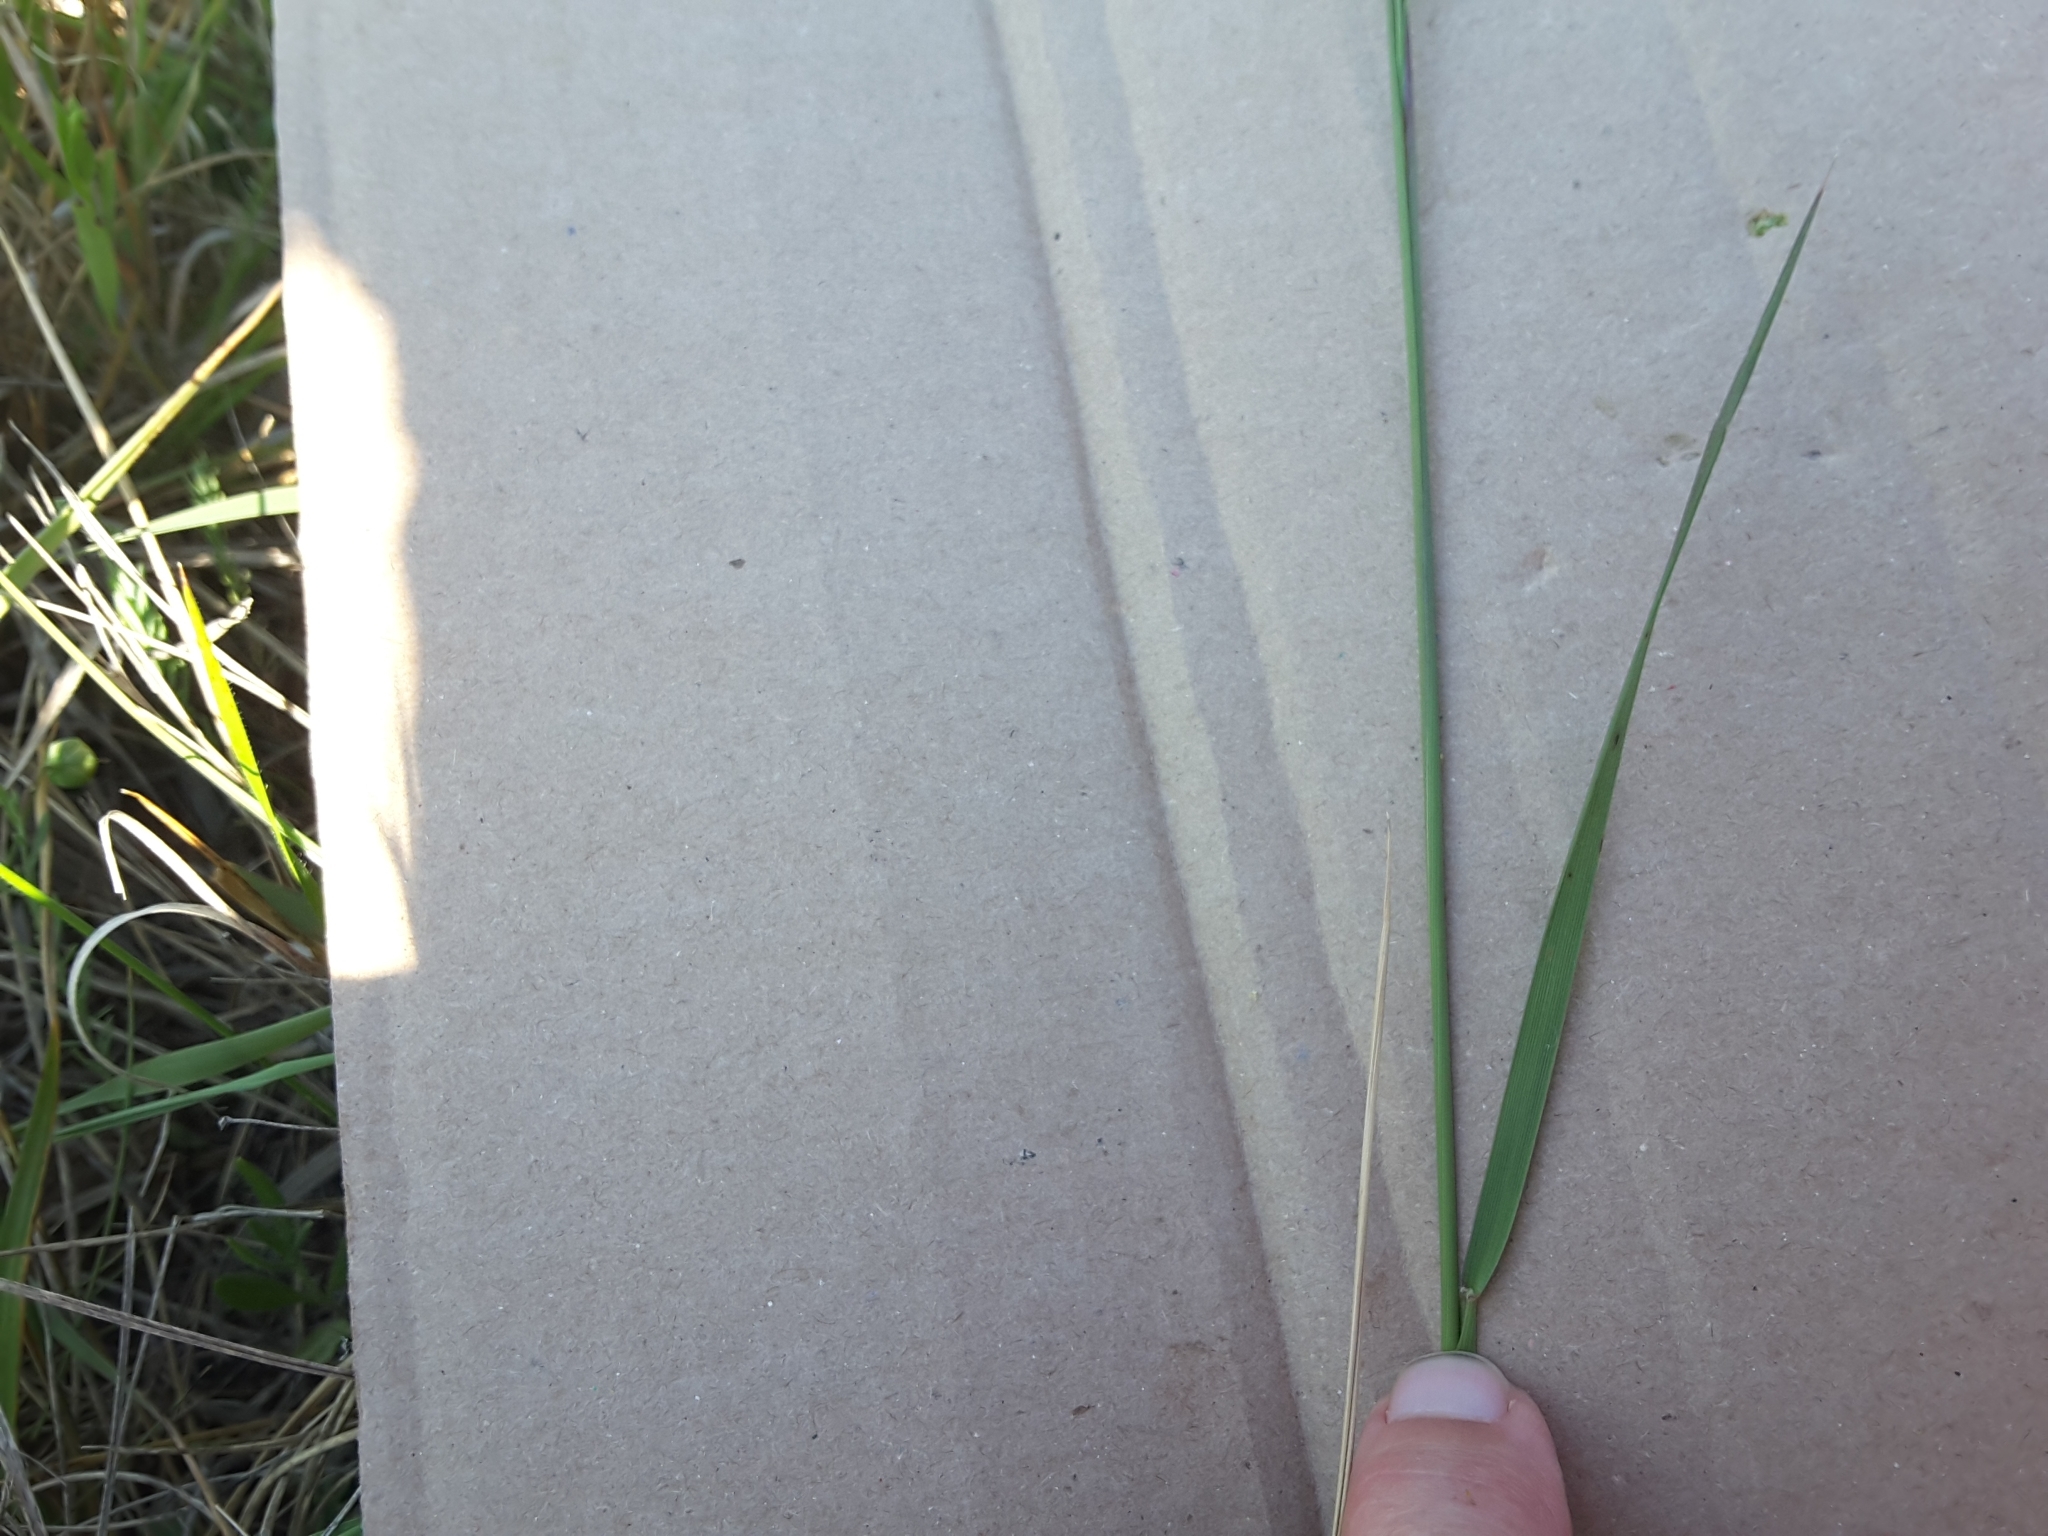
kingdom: Plantae
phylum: Tracheophyta
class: Liliopsida
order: Poales
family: Poaceae
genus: Nassella
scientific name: Nassella leucotricha
